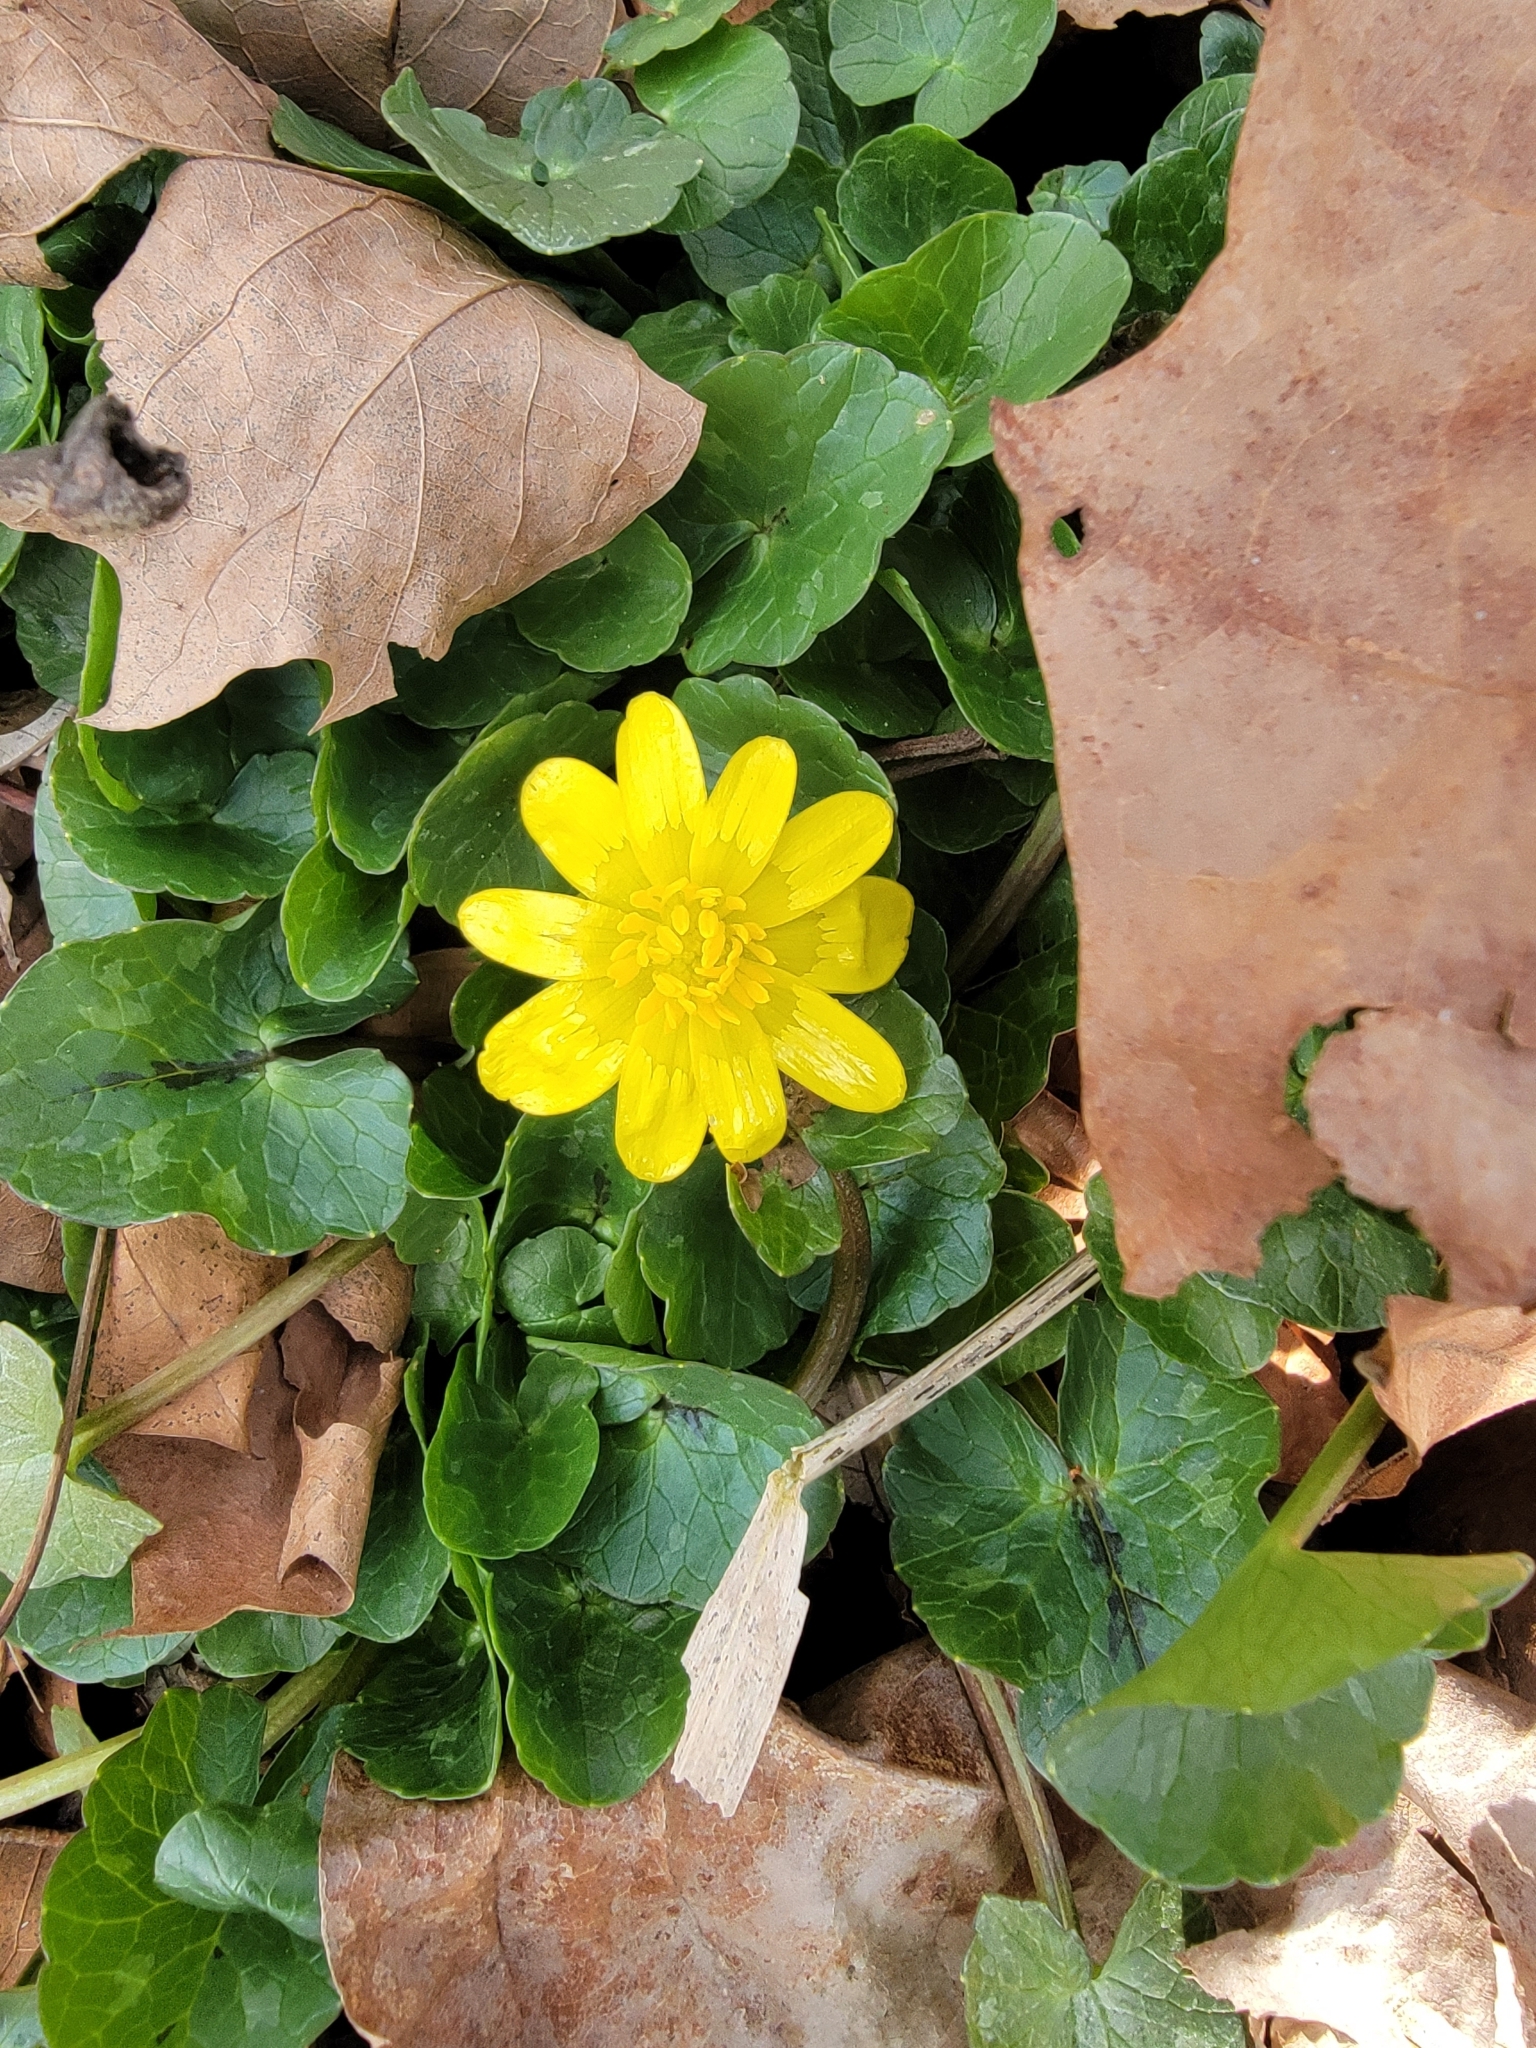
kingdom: Plantae
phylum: Tracheophyta
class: Magnoliopsida
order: Ranunculales
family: Ranunculaceae
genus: Ficaria
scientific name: Ficaria verna
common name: Lesser celandine
